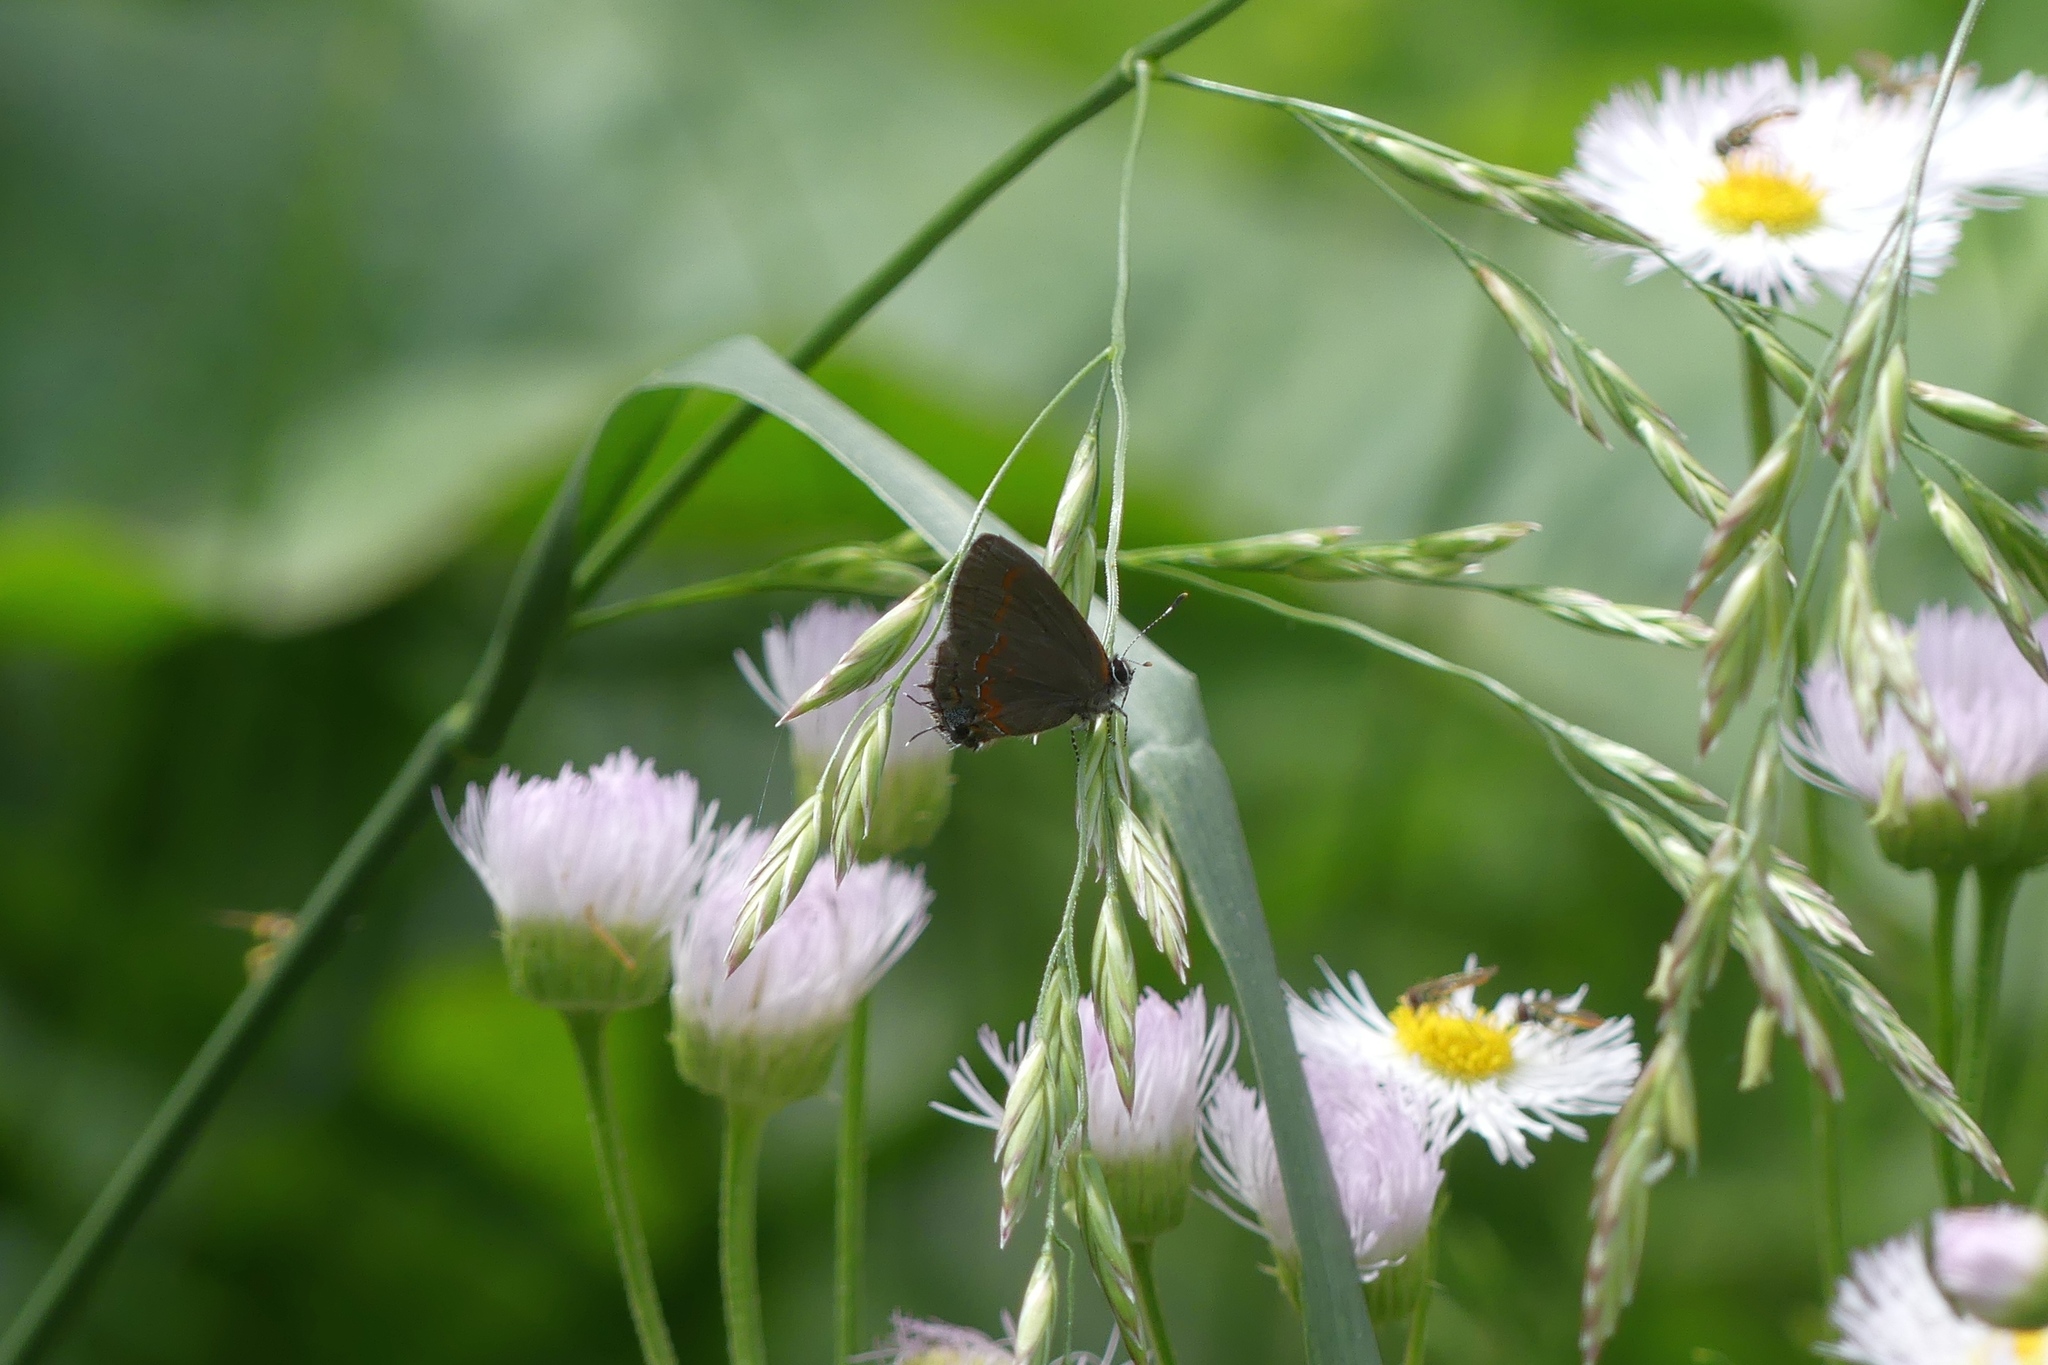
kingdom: Animalia
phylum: Arthropoda
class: Insecta
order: Lepidoptera
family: Lycaenidae
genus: Calycopis
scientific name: Calycopis cecrops
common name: Red-banded hairstreak
